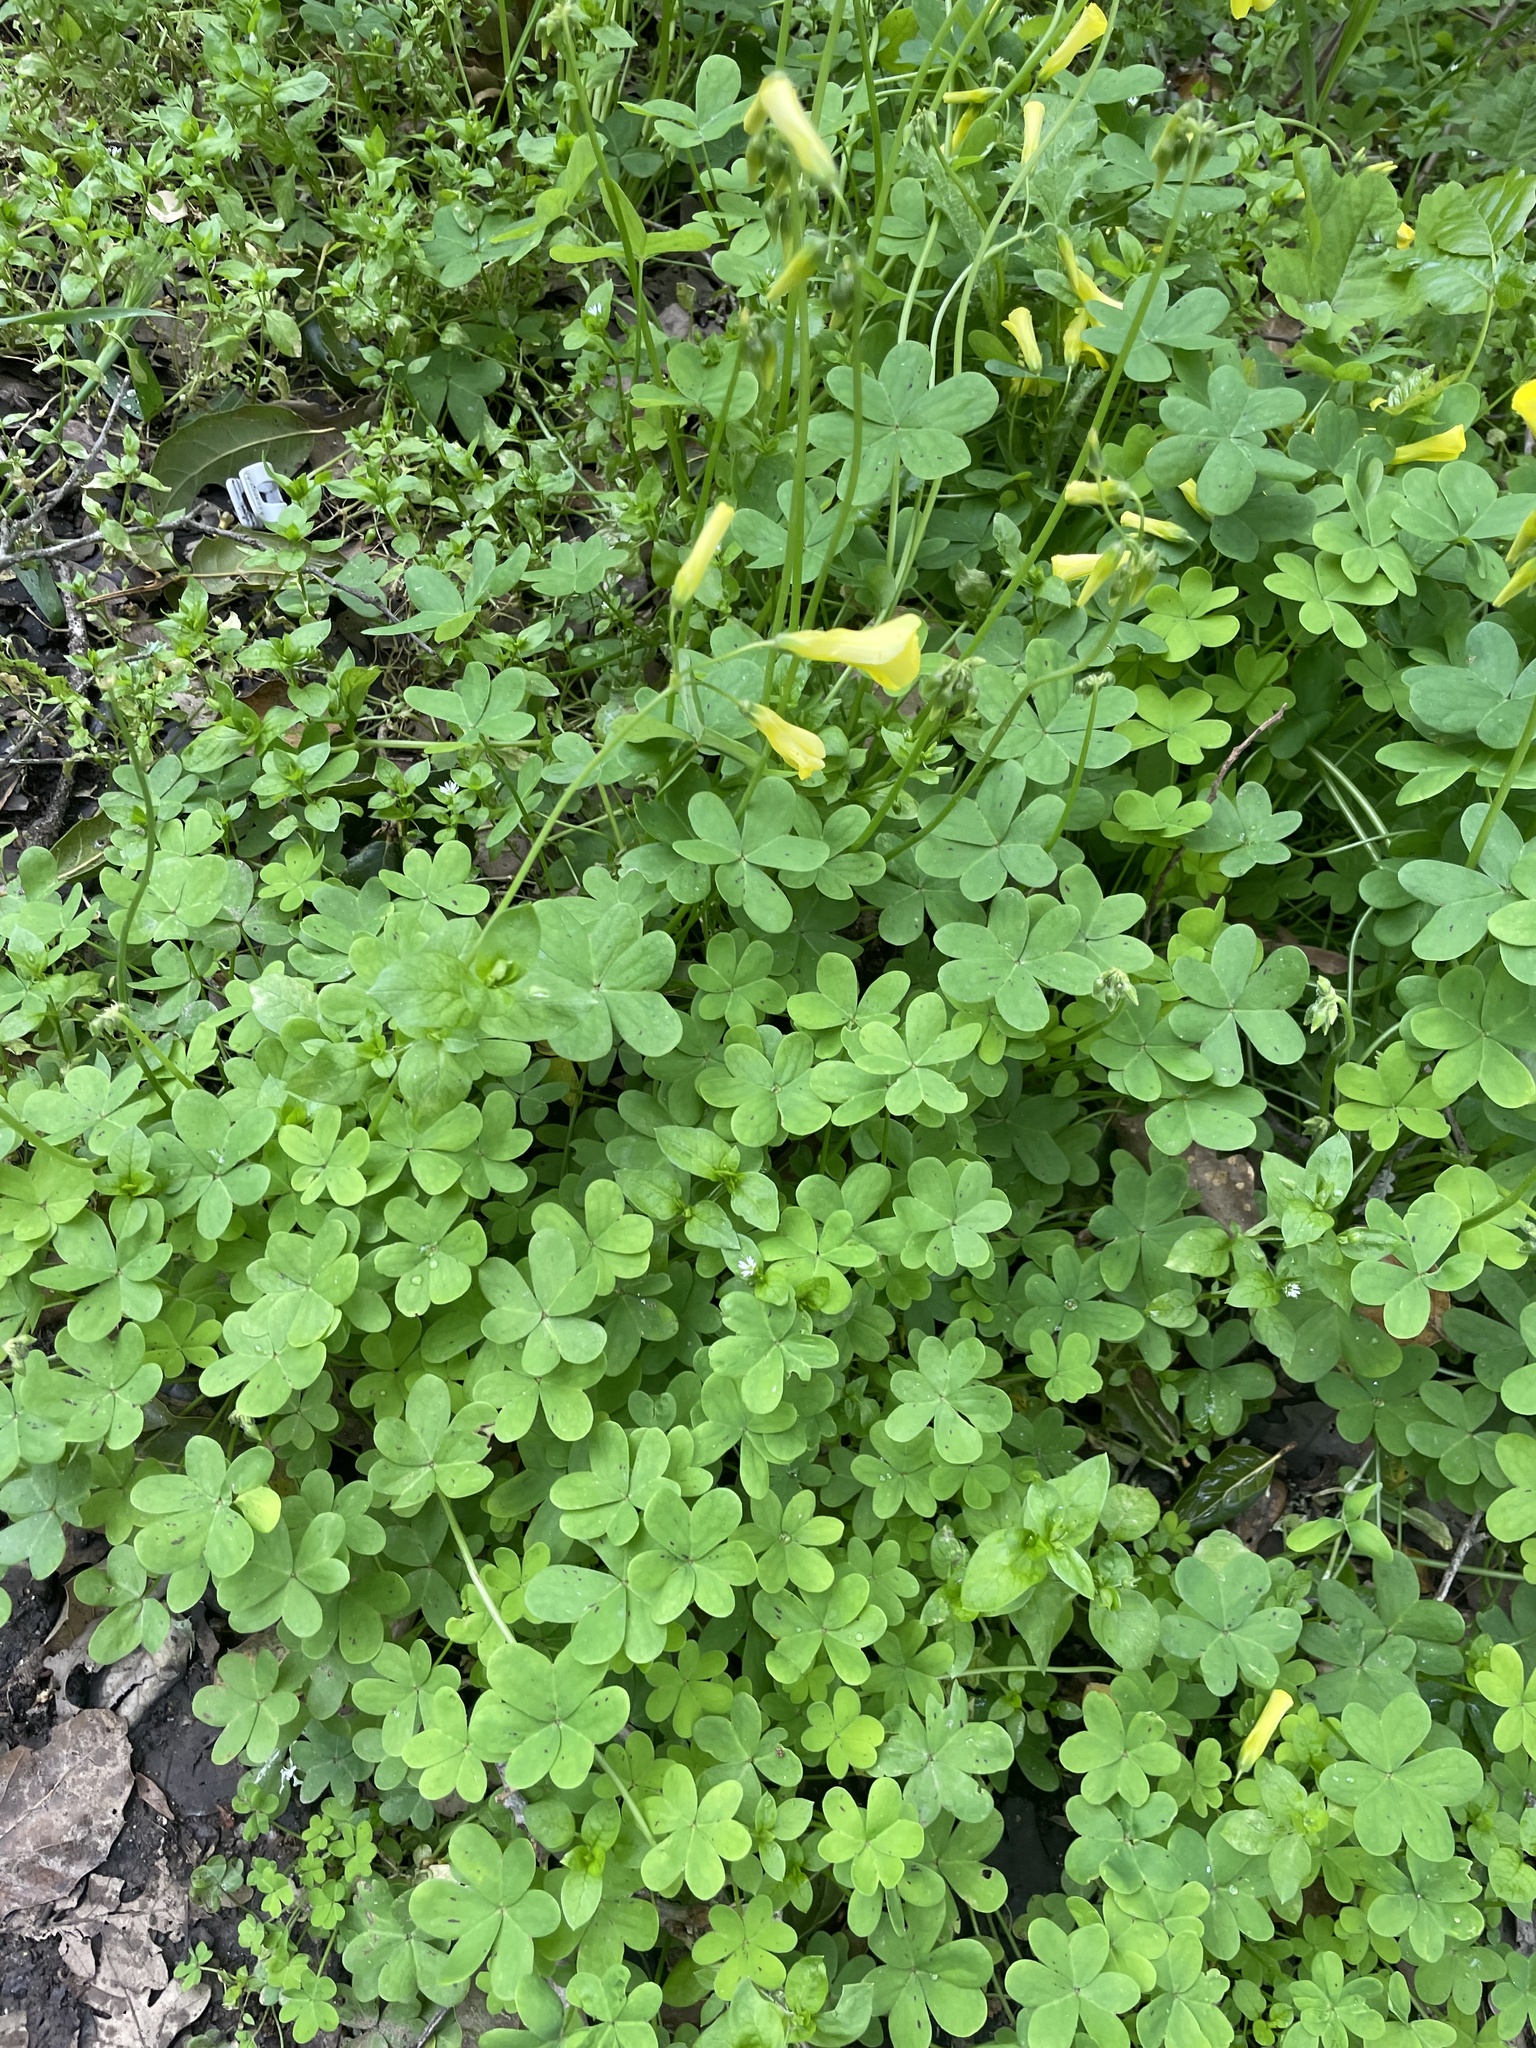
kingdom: Plantae
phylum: Tracheophyta
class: Magnoliopsida
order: Oxalidales
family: Oxalidaceae
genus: Oxalis
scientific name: Oxalis pes-caprae
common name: Bermuda-buttercup
